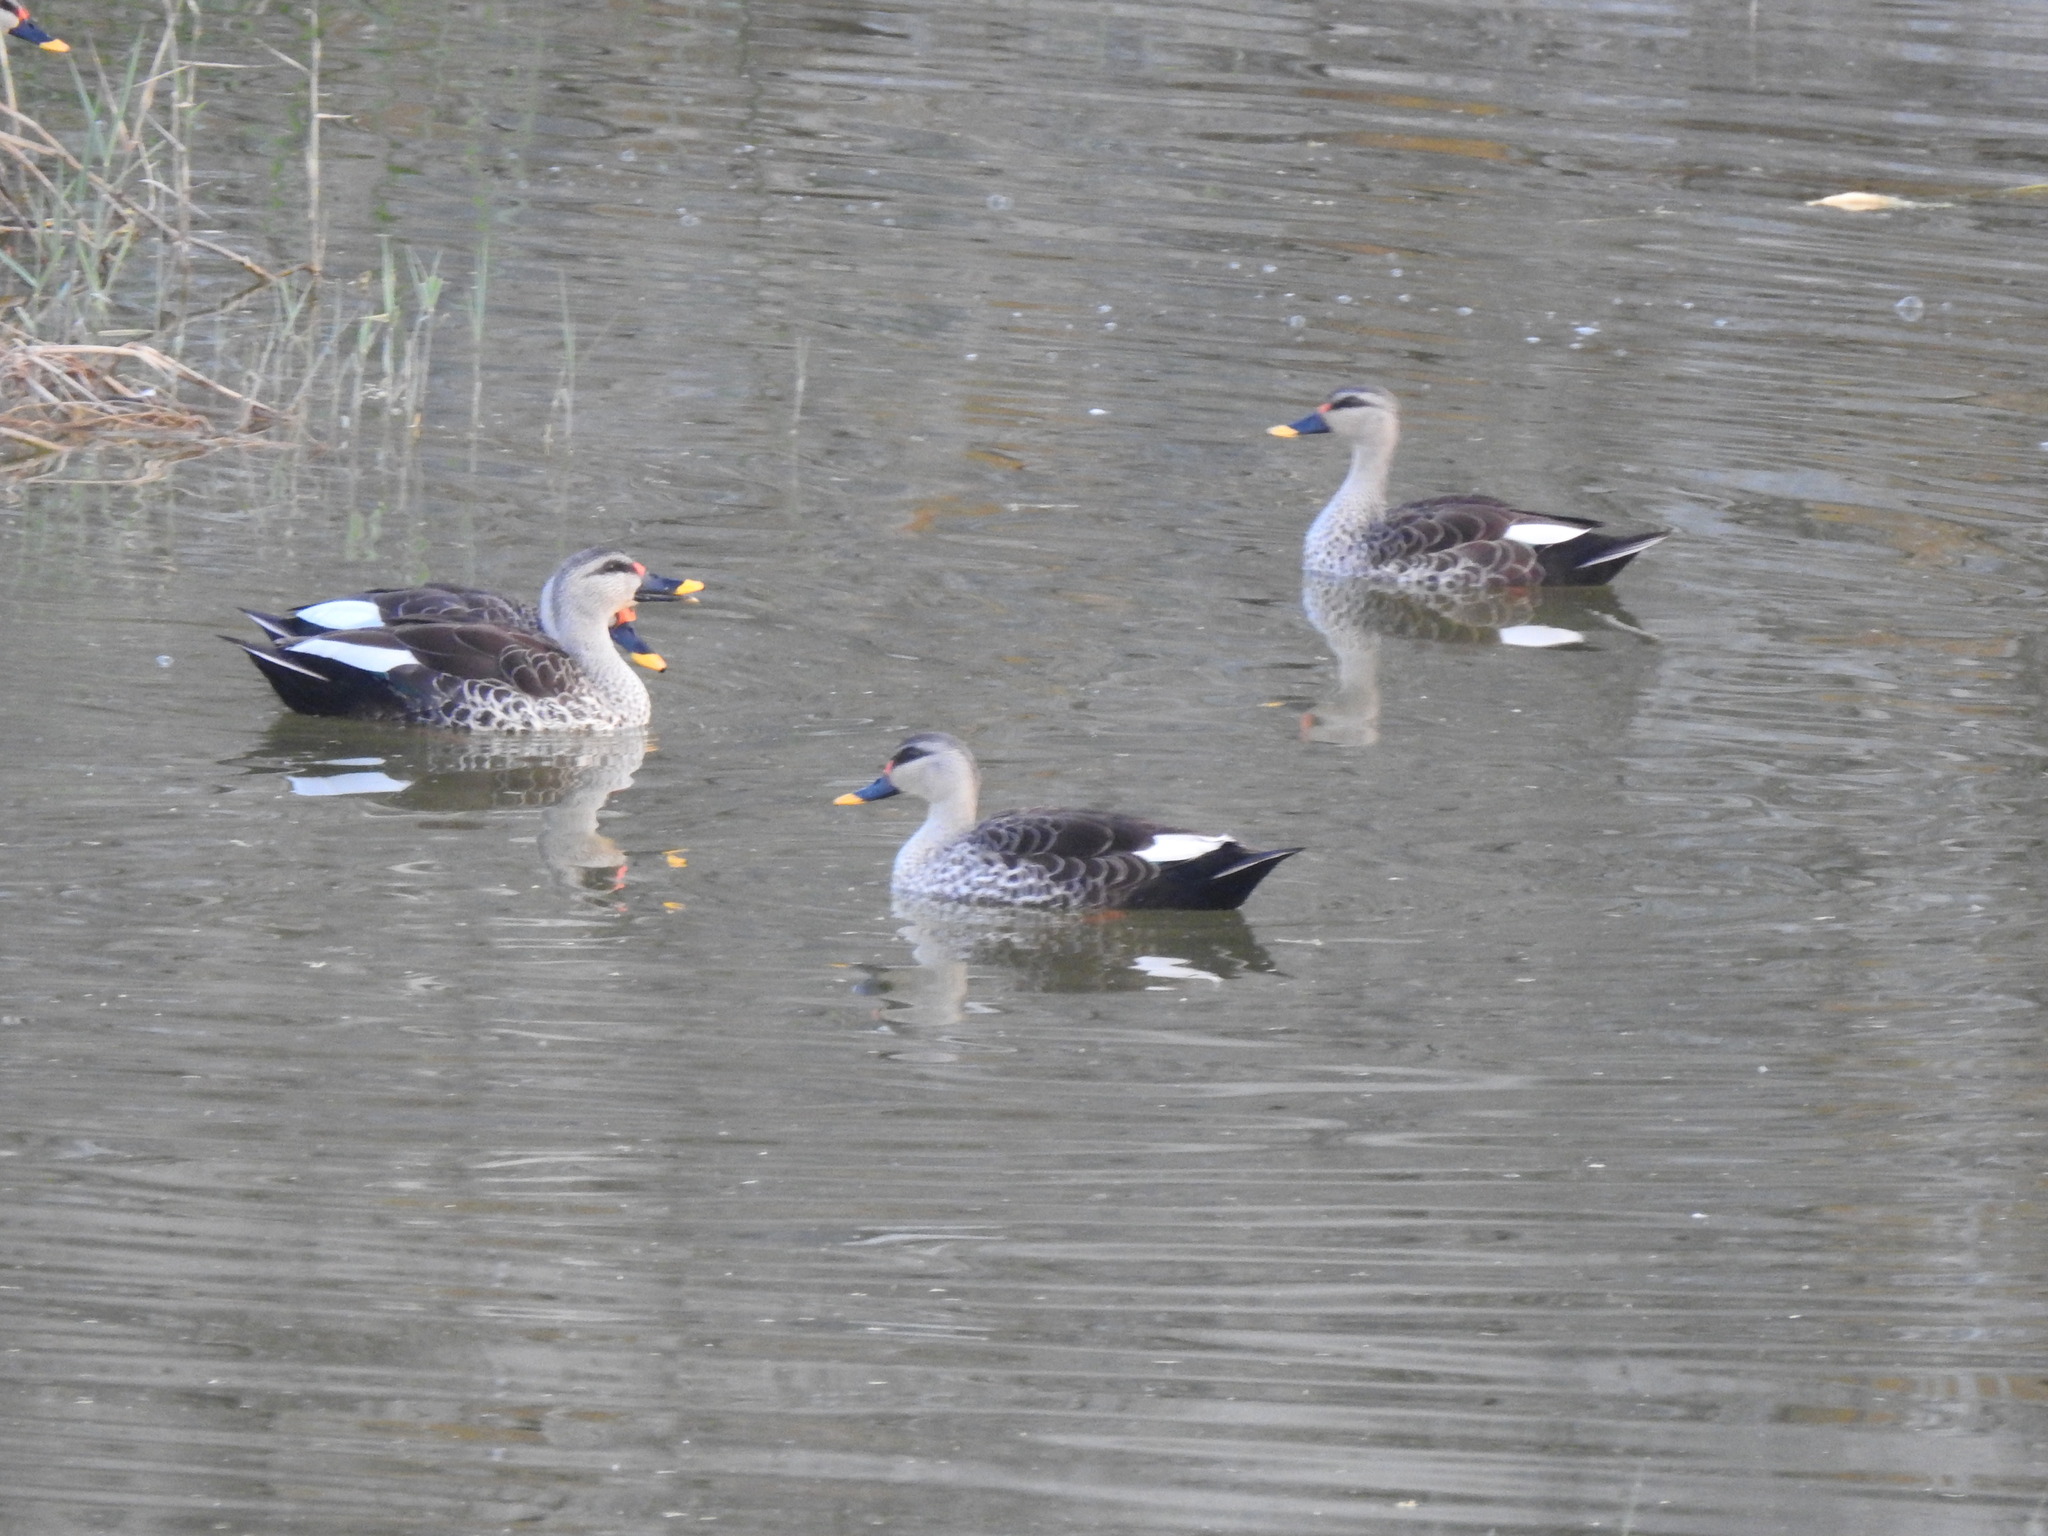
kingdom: Animalia
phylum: Chordata
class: Aves
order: Anseriformes
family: Anatidae
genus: Anas
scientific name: Anas poecilorhyncha
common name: Indian spot-billed duck
